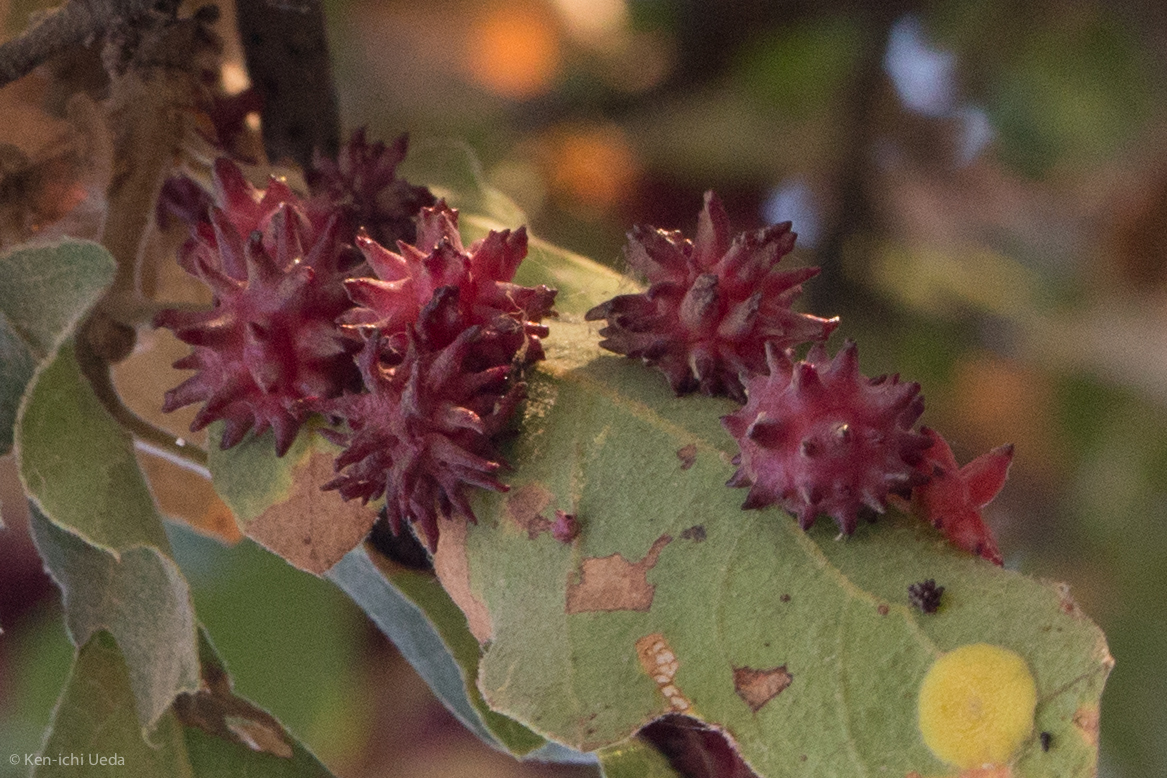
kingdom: Animalia
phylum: Arthropoda
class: Insecta
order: Hymenoptera
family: Cynipidae
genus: Cynips
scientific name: Cynips
